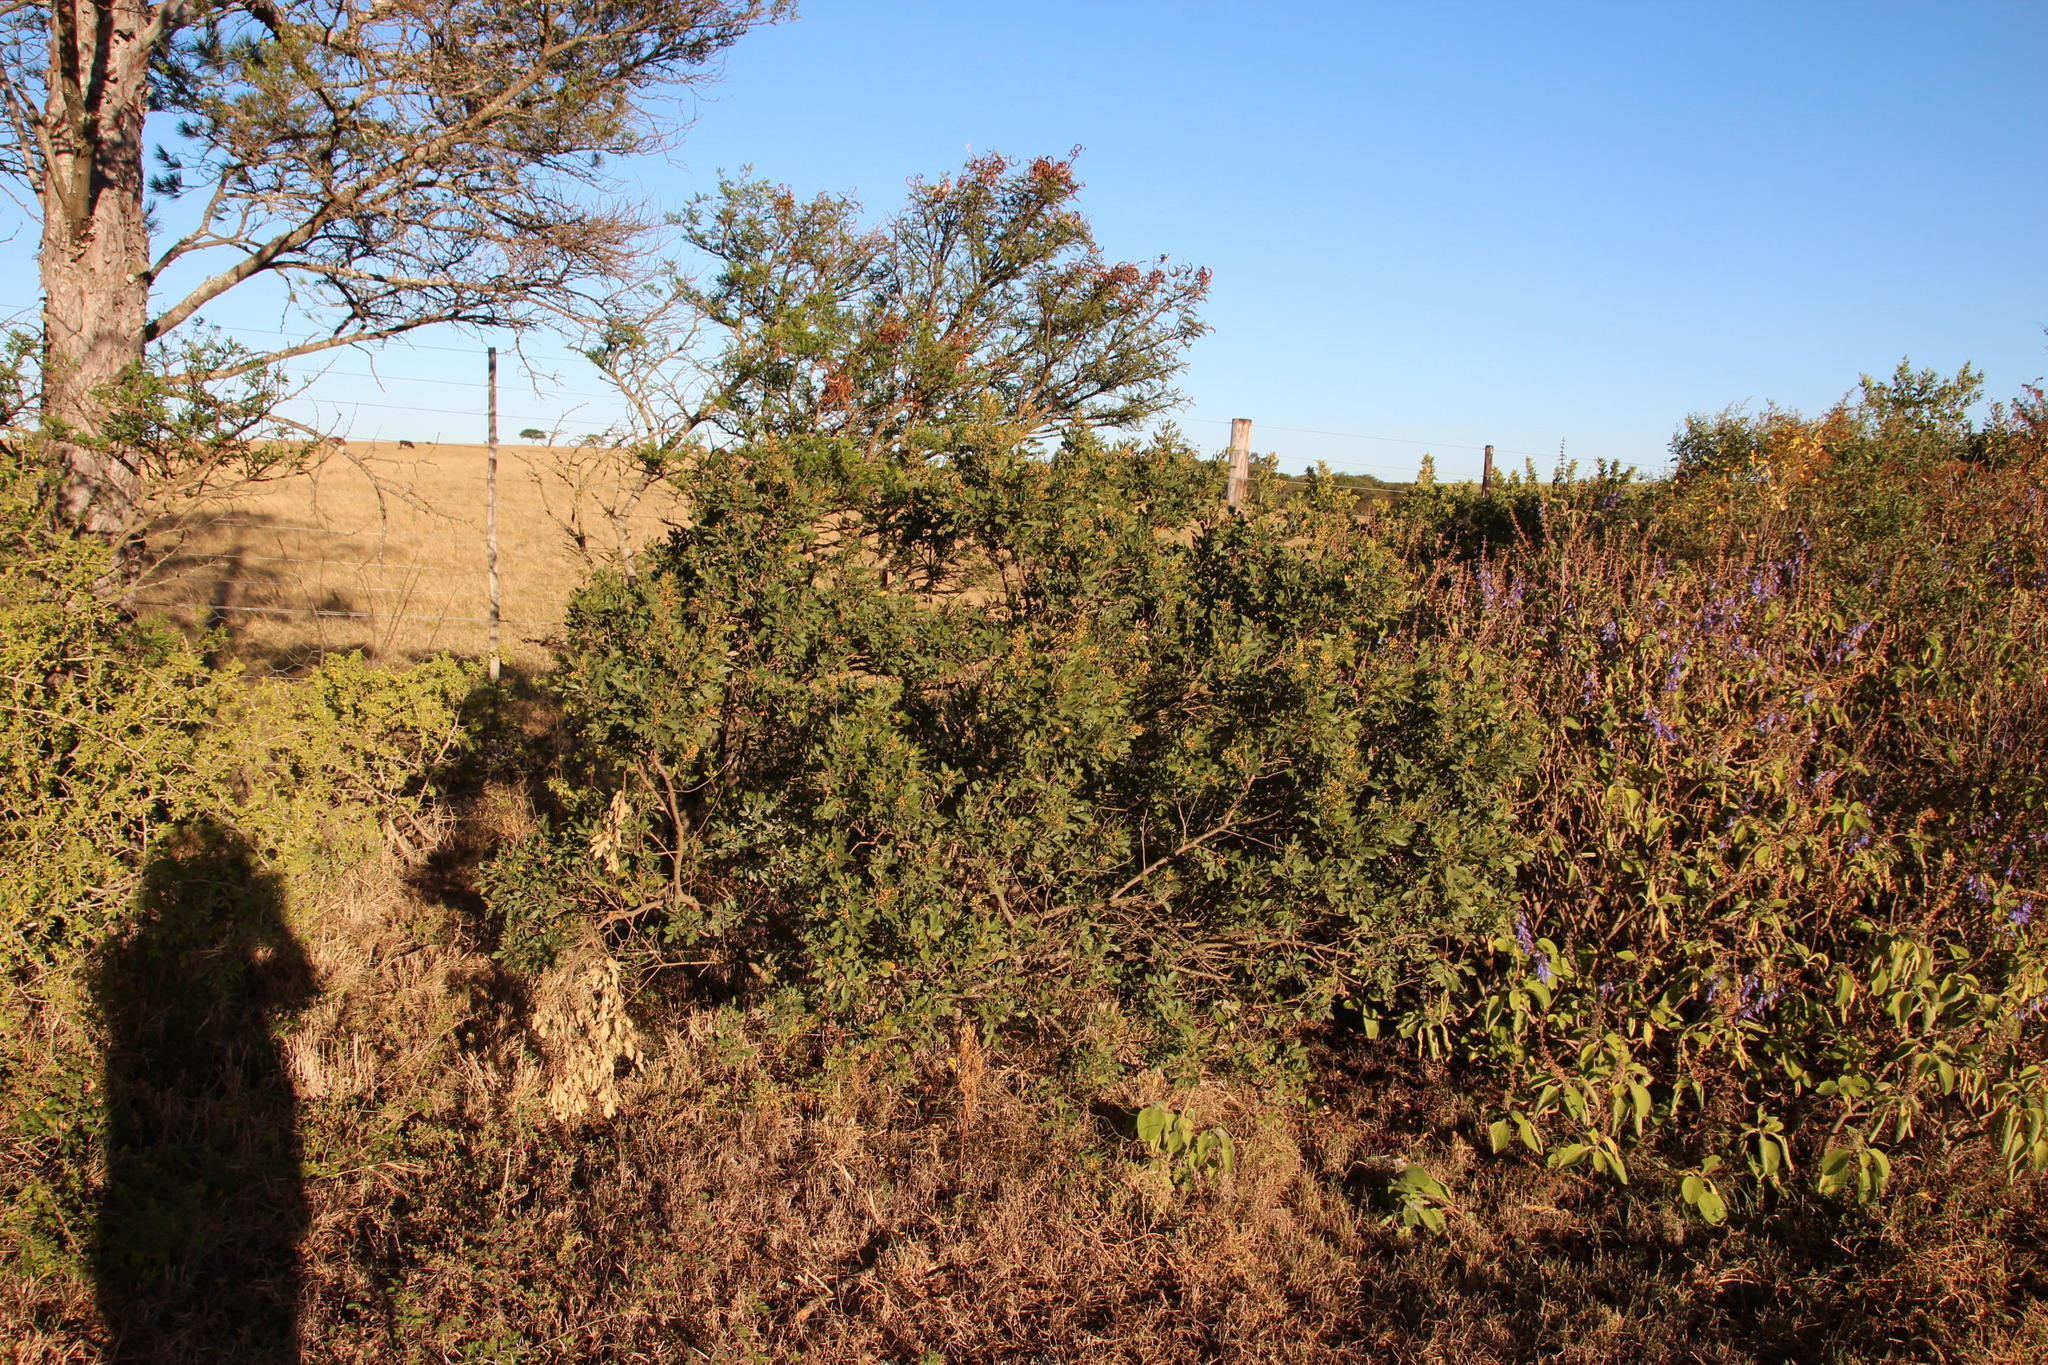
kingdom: Plantae
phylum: Tracheophyta
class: Magnoliopsida
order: Sapindales
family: Anacardiaceae
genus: Searsia
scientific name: Searsia pallens
